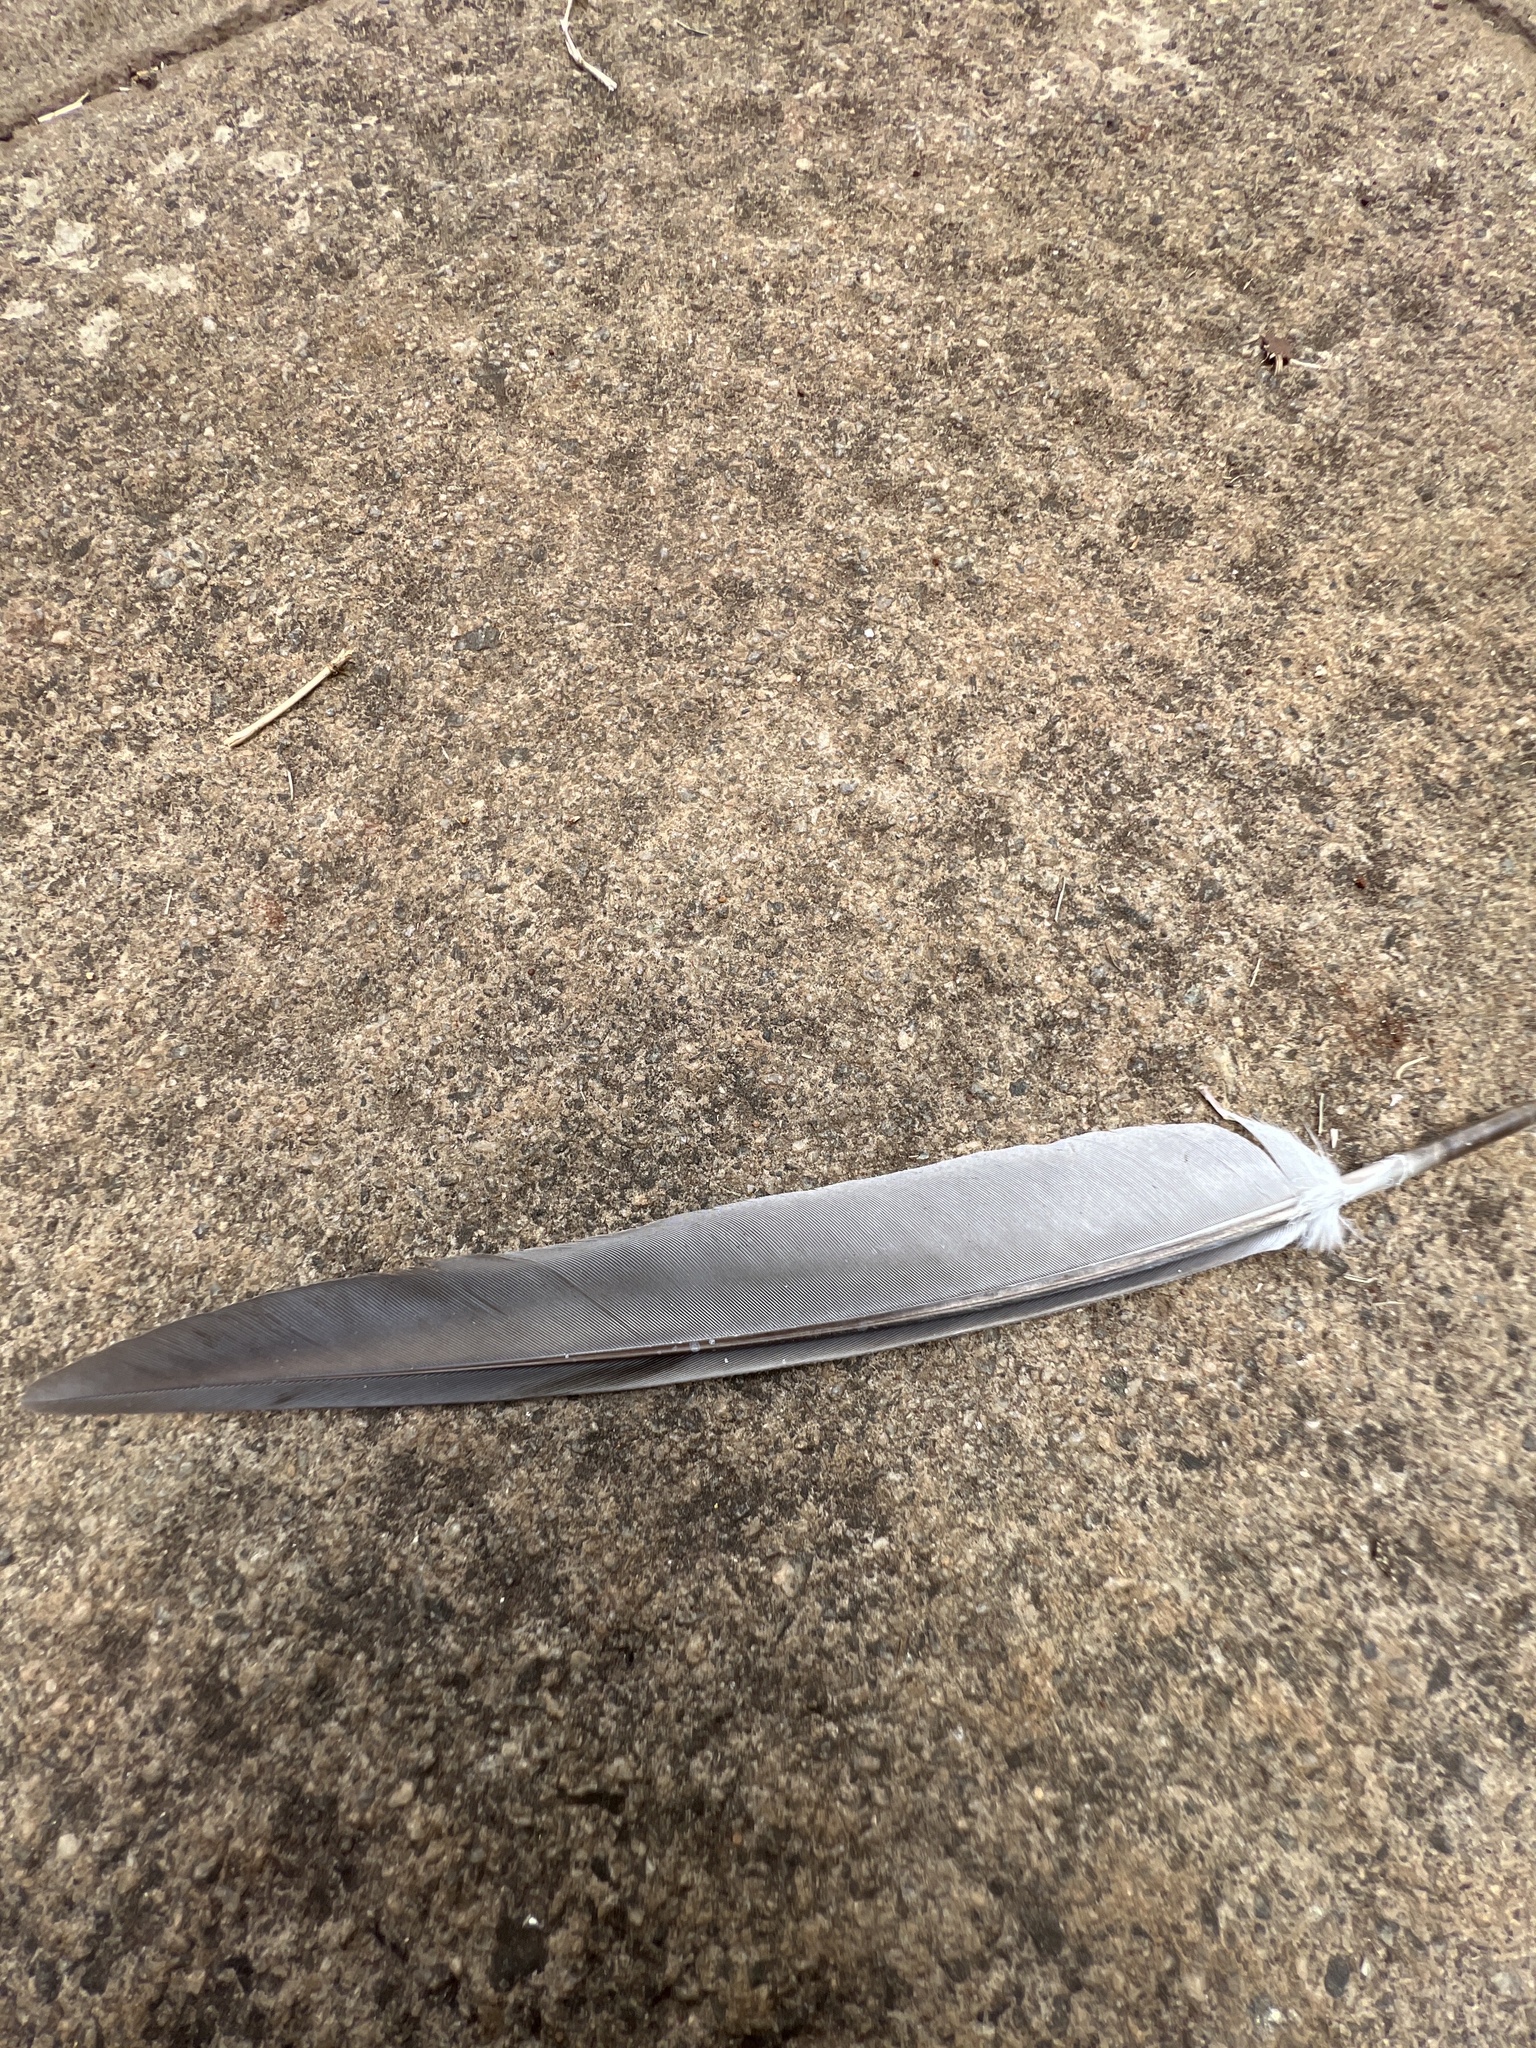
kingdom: Animalia
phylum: Chordata
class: Aves
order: Columbiformes
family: Columbidae
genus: Columba
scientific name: Columba livia
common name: Rock pigeon
